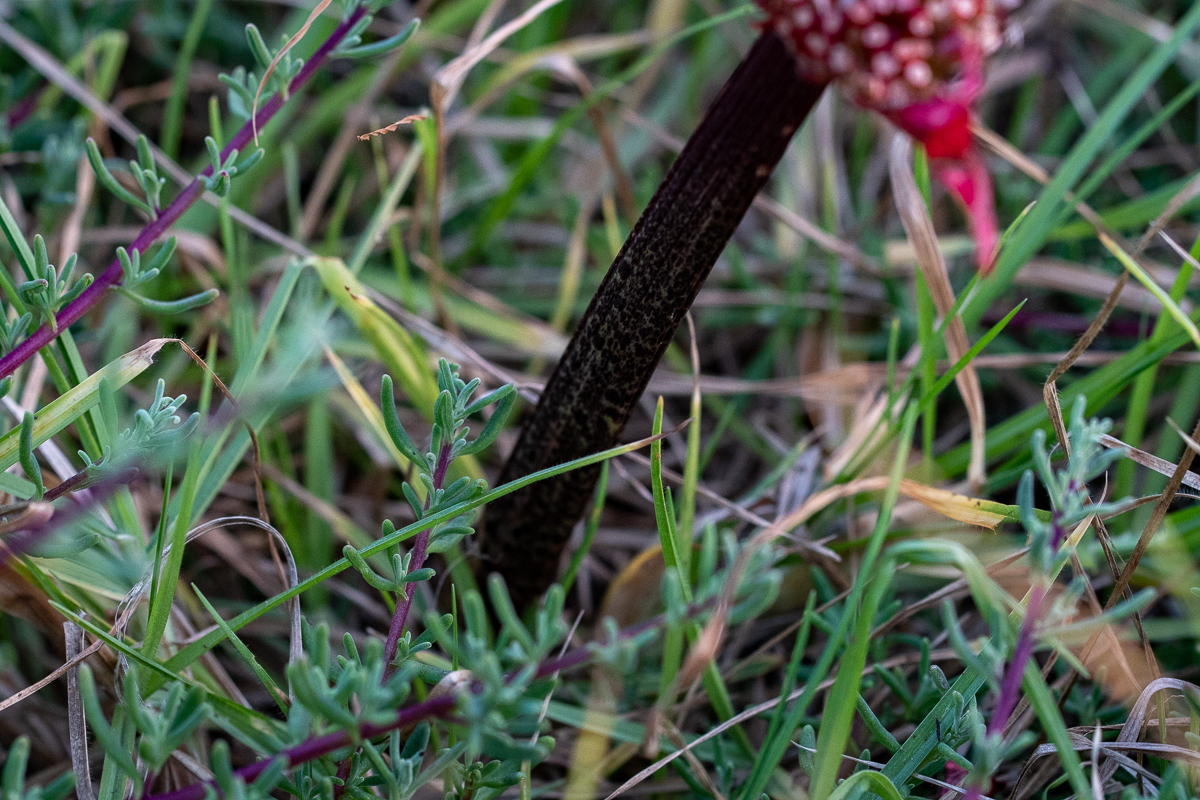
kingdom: Plantae
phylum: Tracheophyta
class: Liliopsida
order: Asparagales
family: Amaryllidaceae
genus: Haemanthus
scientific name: Haemanthus coccineus
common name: Cape-tulip
